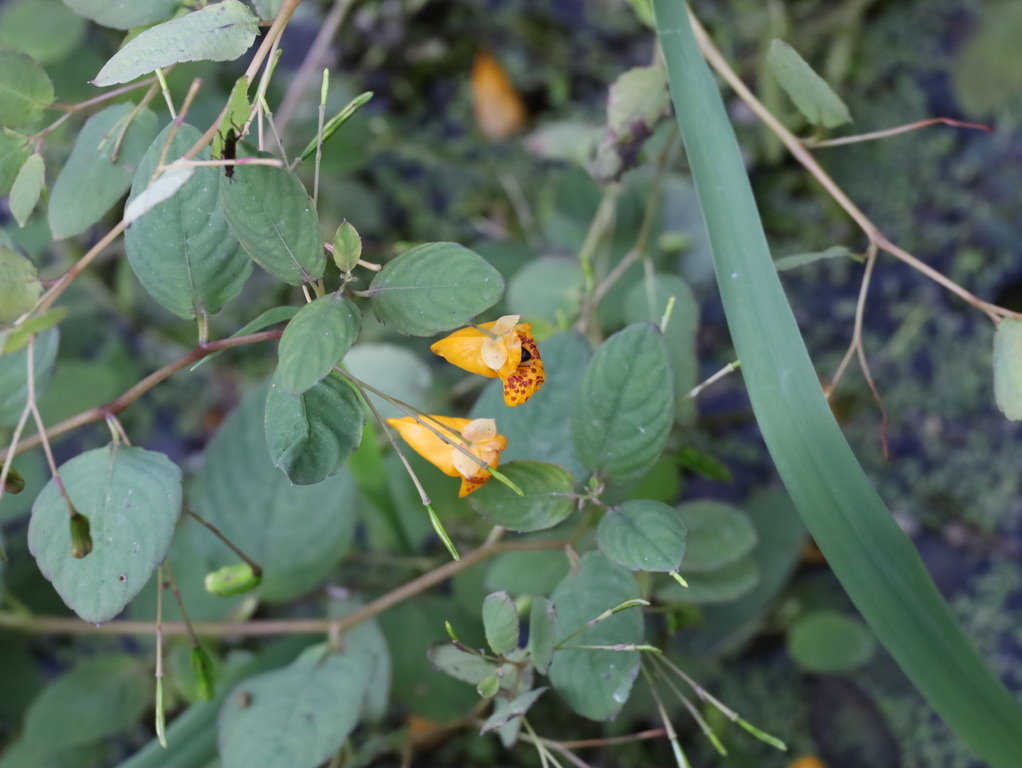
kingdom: Animalia
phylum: Arthropoda
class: Insecta
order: Hymenoptera
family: Apidae
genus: Apis
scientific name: Apis mellifera
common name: Honey bee
